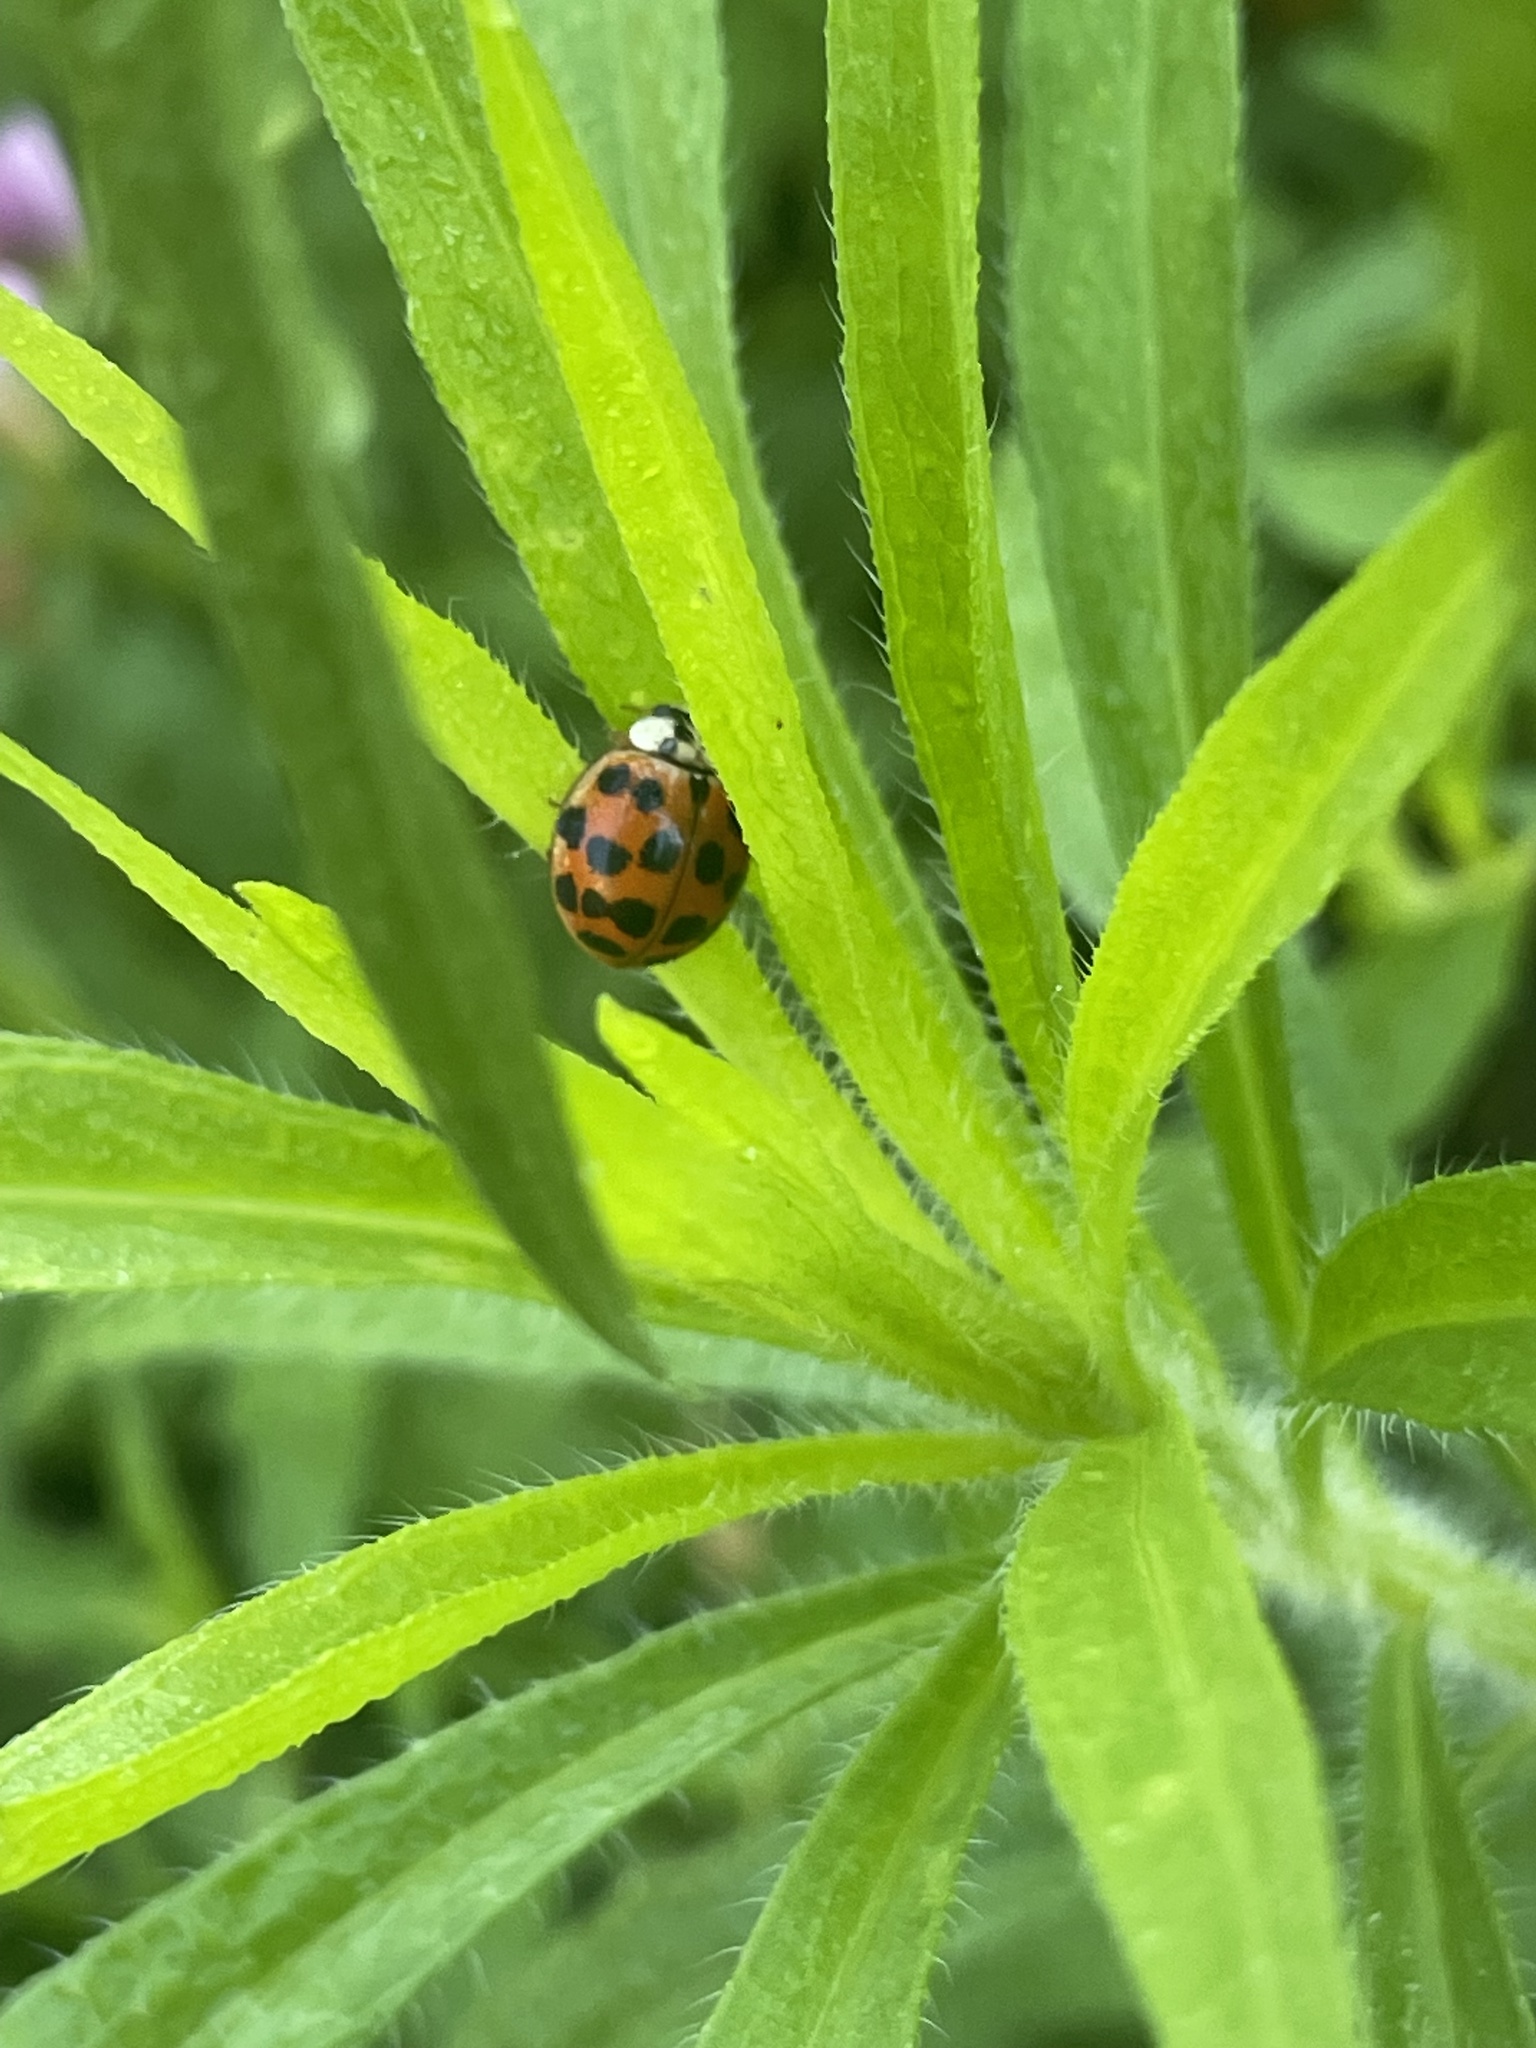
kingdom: Animalia
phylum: Arthropoda
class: Insecta
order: Coleoptera
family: Coccinellidae
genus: Harmonia
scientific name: Harmonia axyridis
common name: Harlequin ladybird
